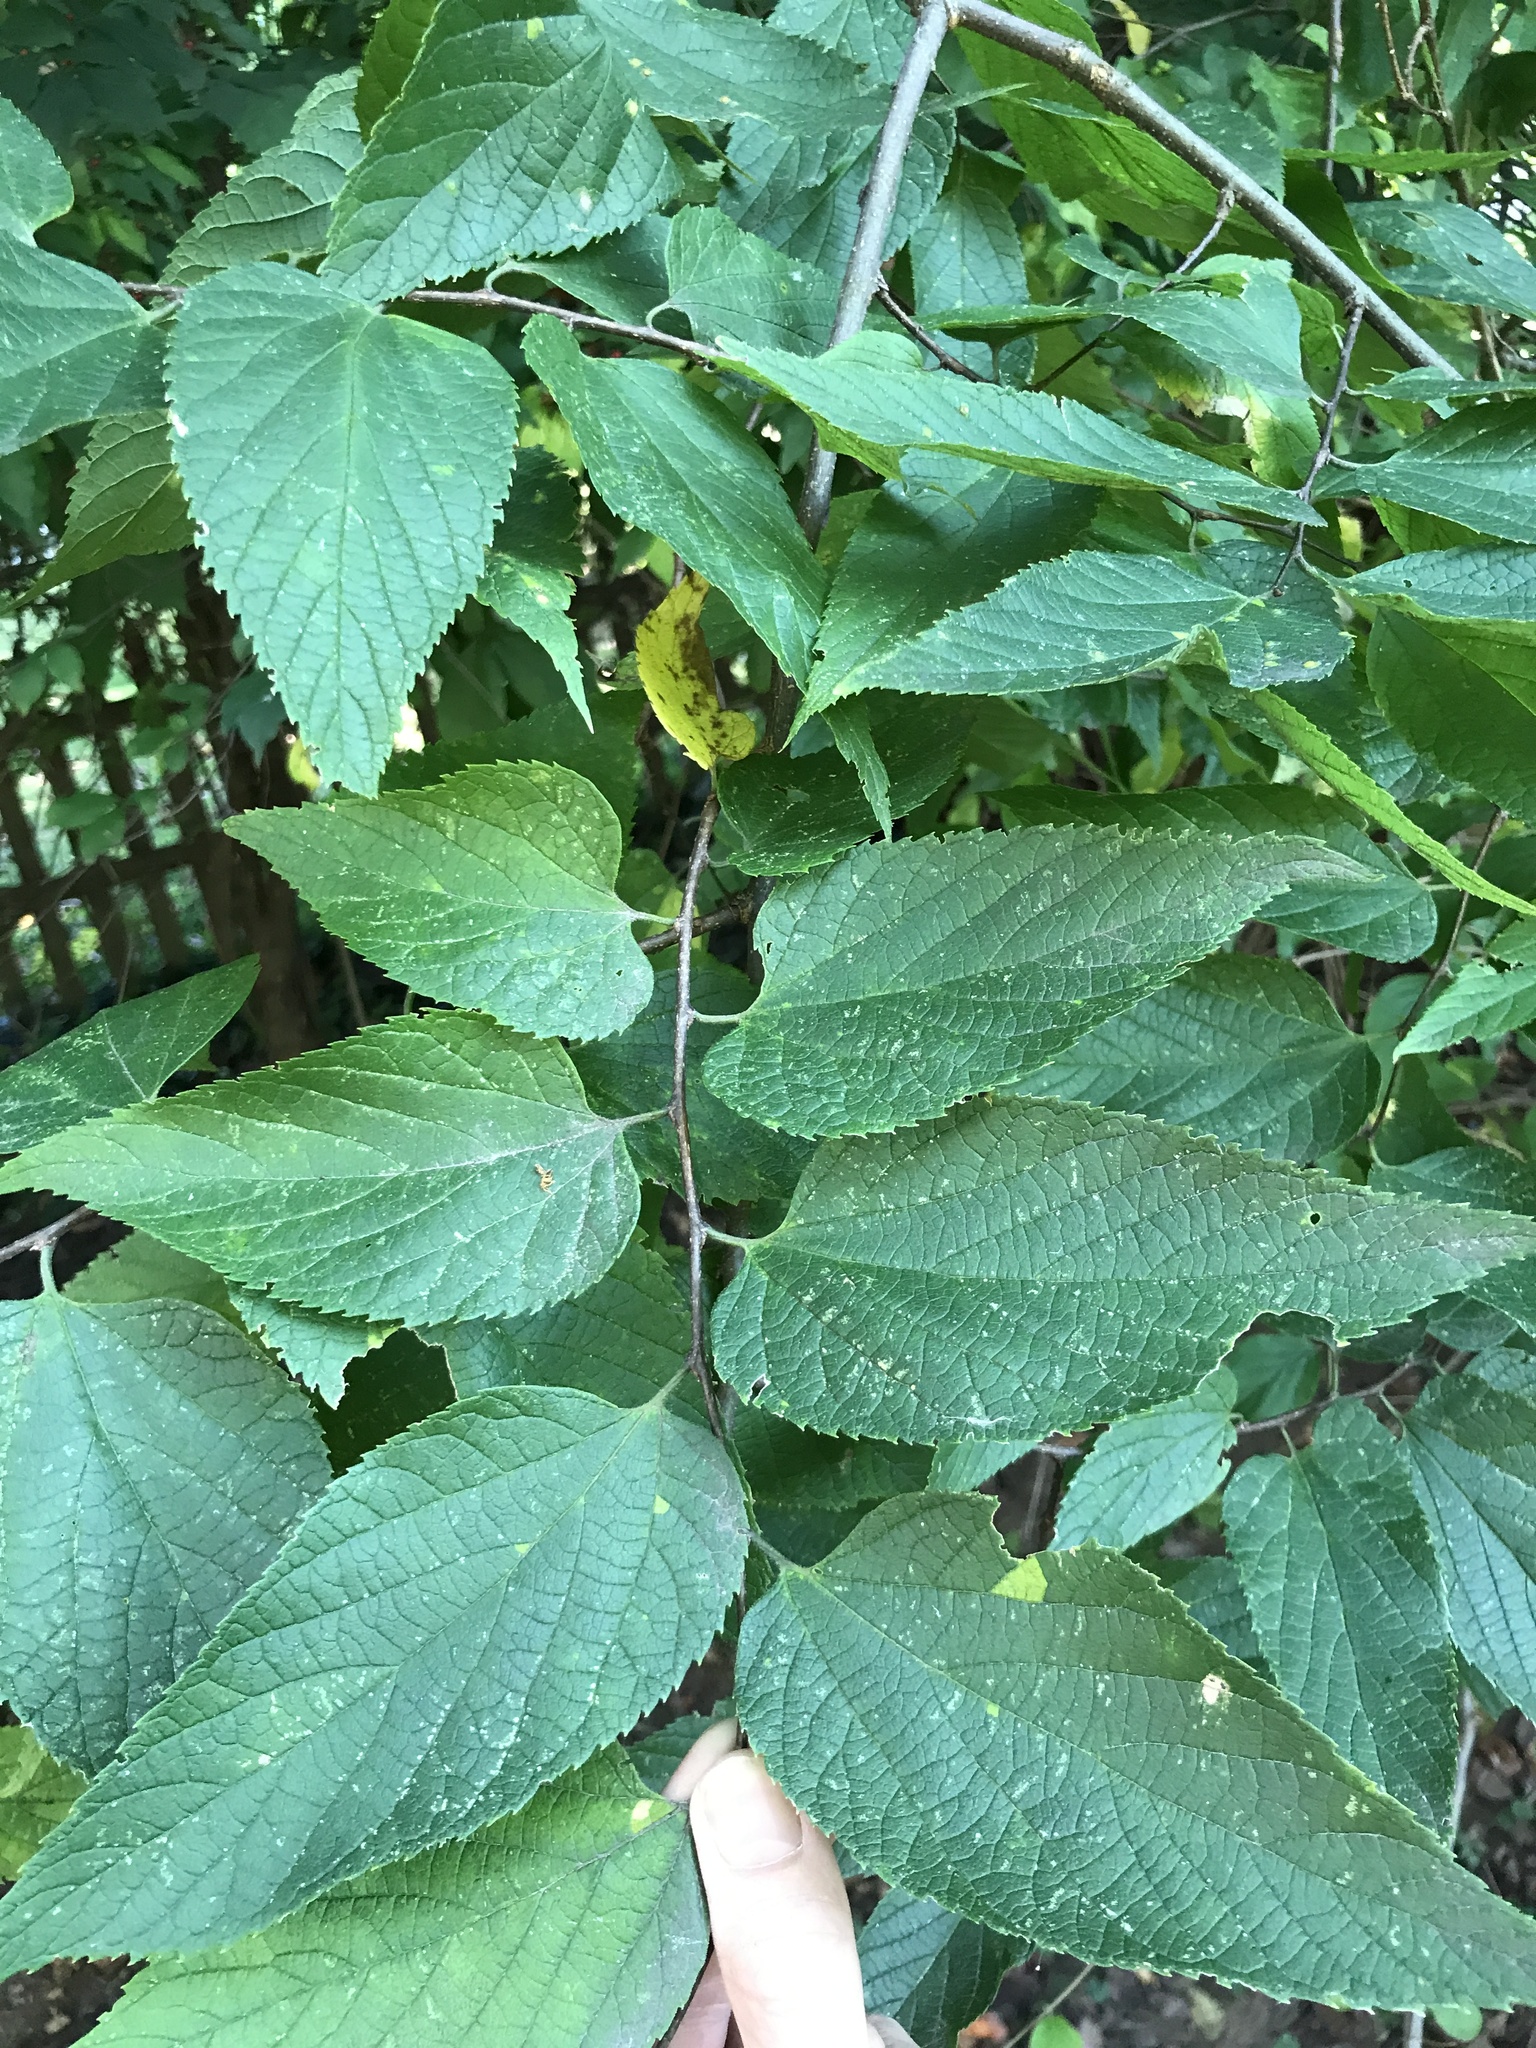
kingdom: Plantae
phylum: Tracheophyta
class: Magnoliopsida
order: Rosales
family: Cannabaceae
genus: Celtis
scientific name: Celtis occidentalis
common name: Common hackberry
